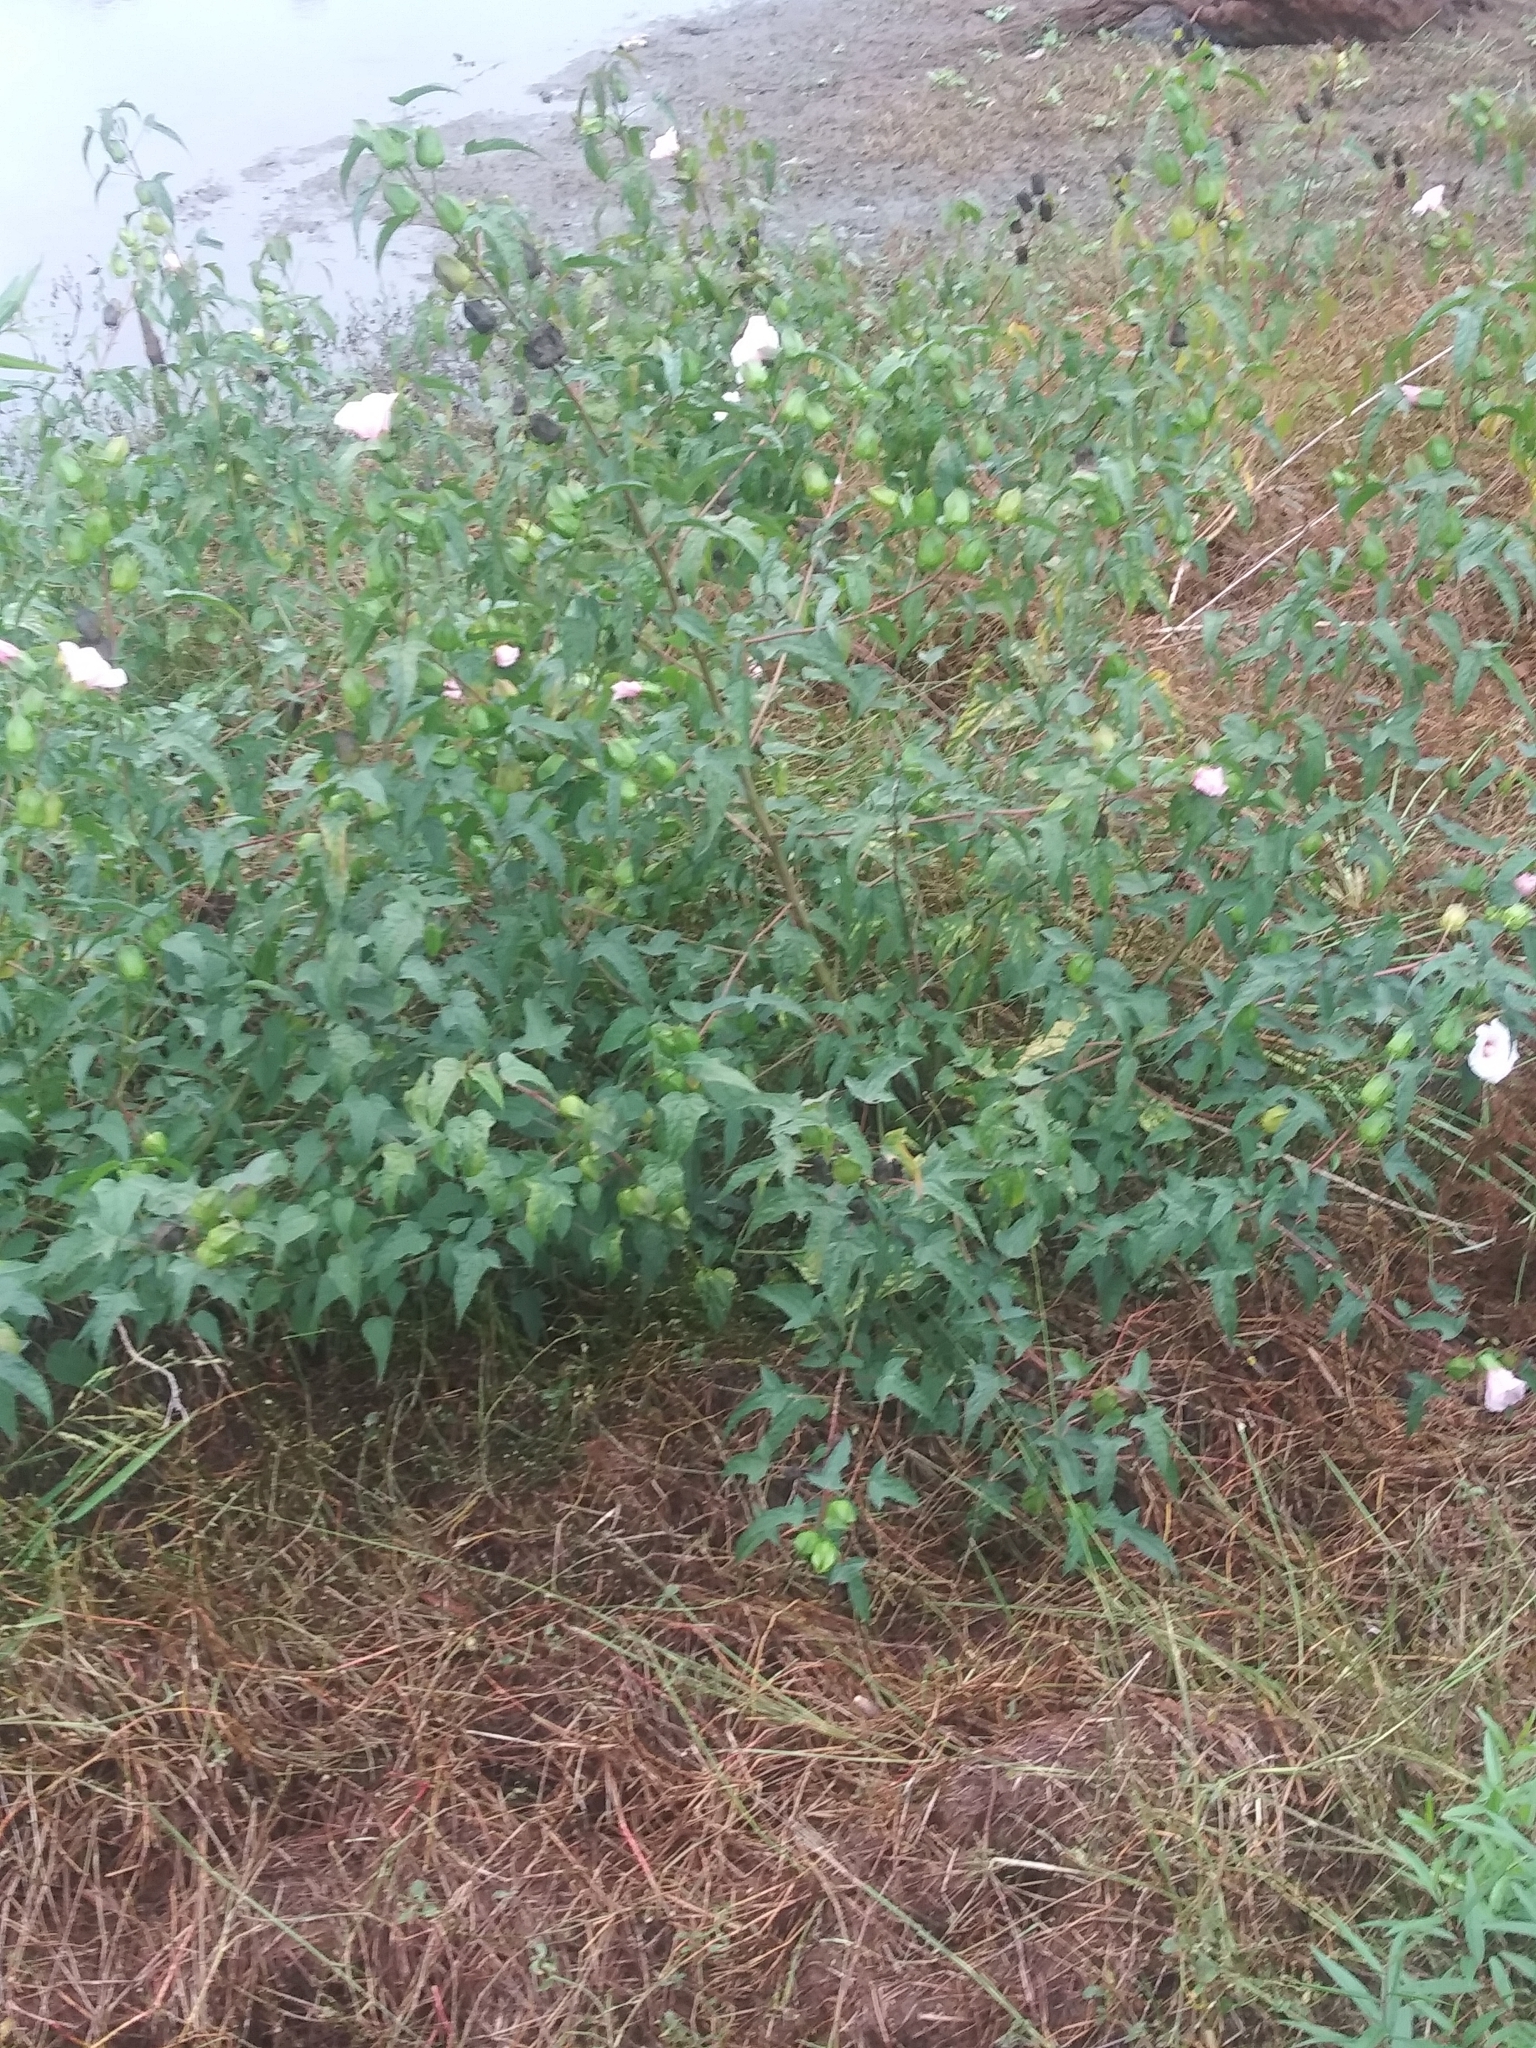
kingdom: Plantae
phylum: Tracheophyta
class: Magnoliopsida
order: Malvales
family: Malvaceae
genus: Hibiscus
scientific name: Hibiscus laevis
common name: Scarlet rose-mallow
